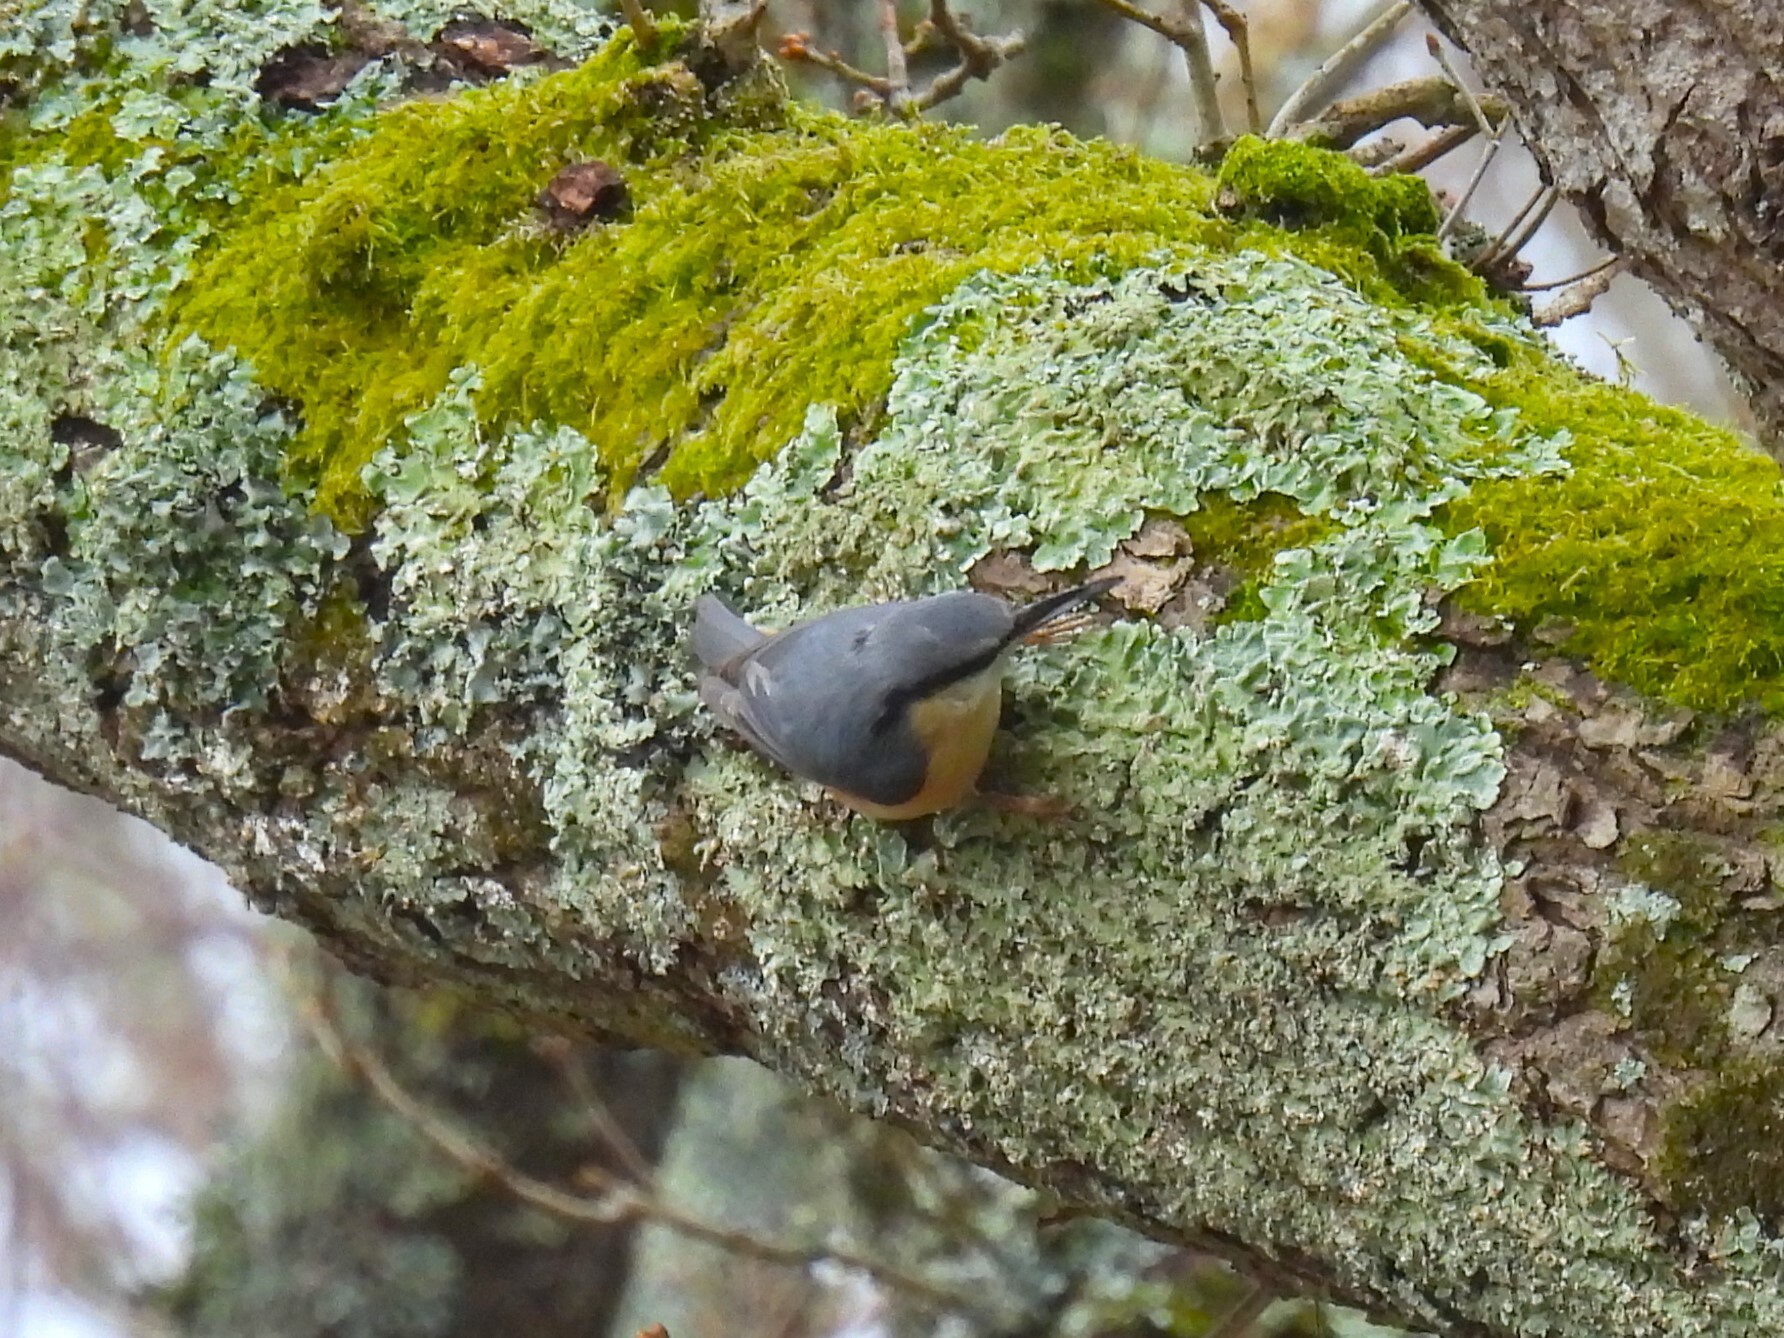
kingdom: Animalia
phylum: Chordata
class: Aves
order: Passeriformes
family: Sittidae
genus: Sitta
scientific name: Sitta europaea
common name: Eurasian nuthatch
